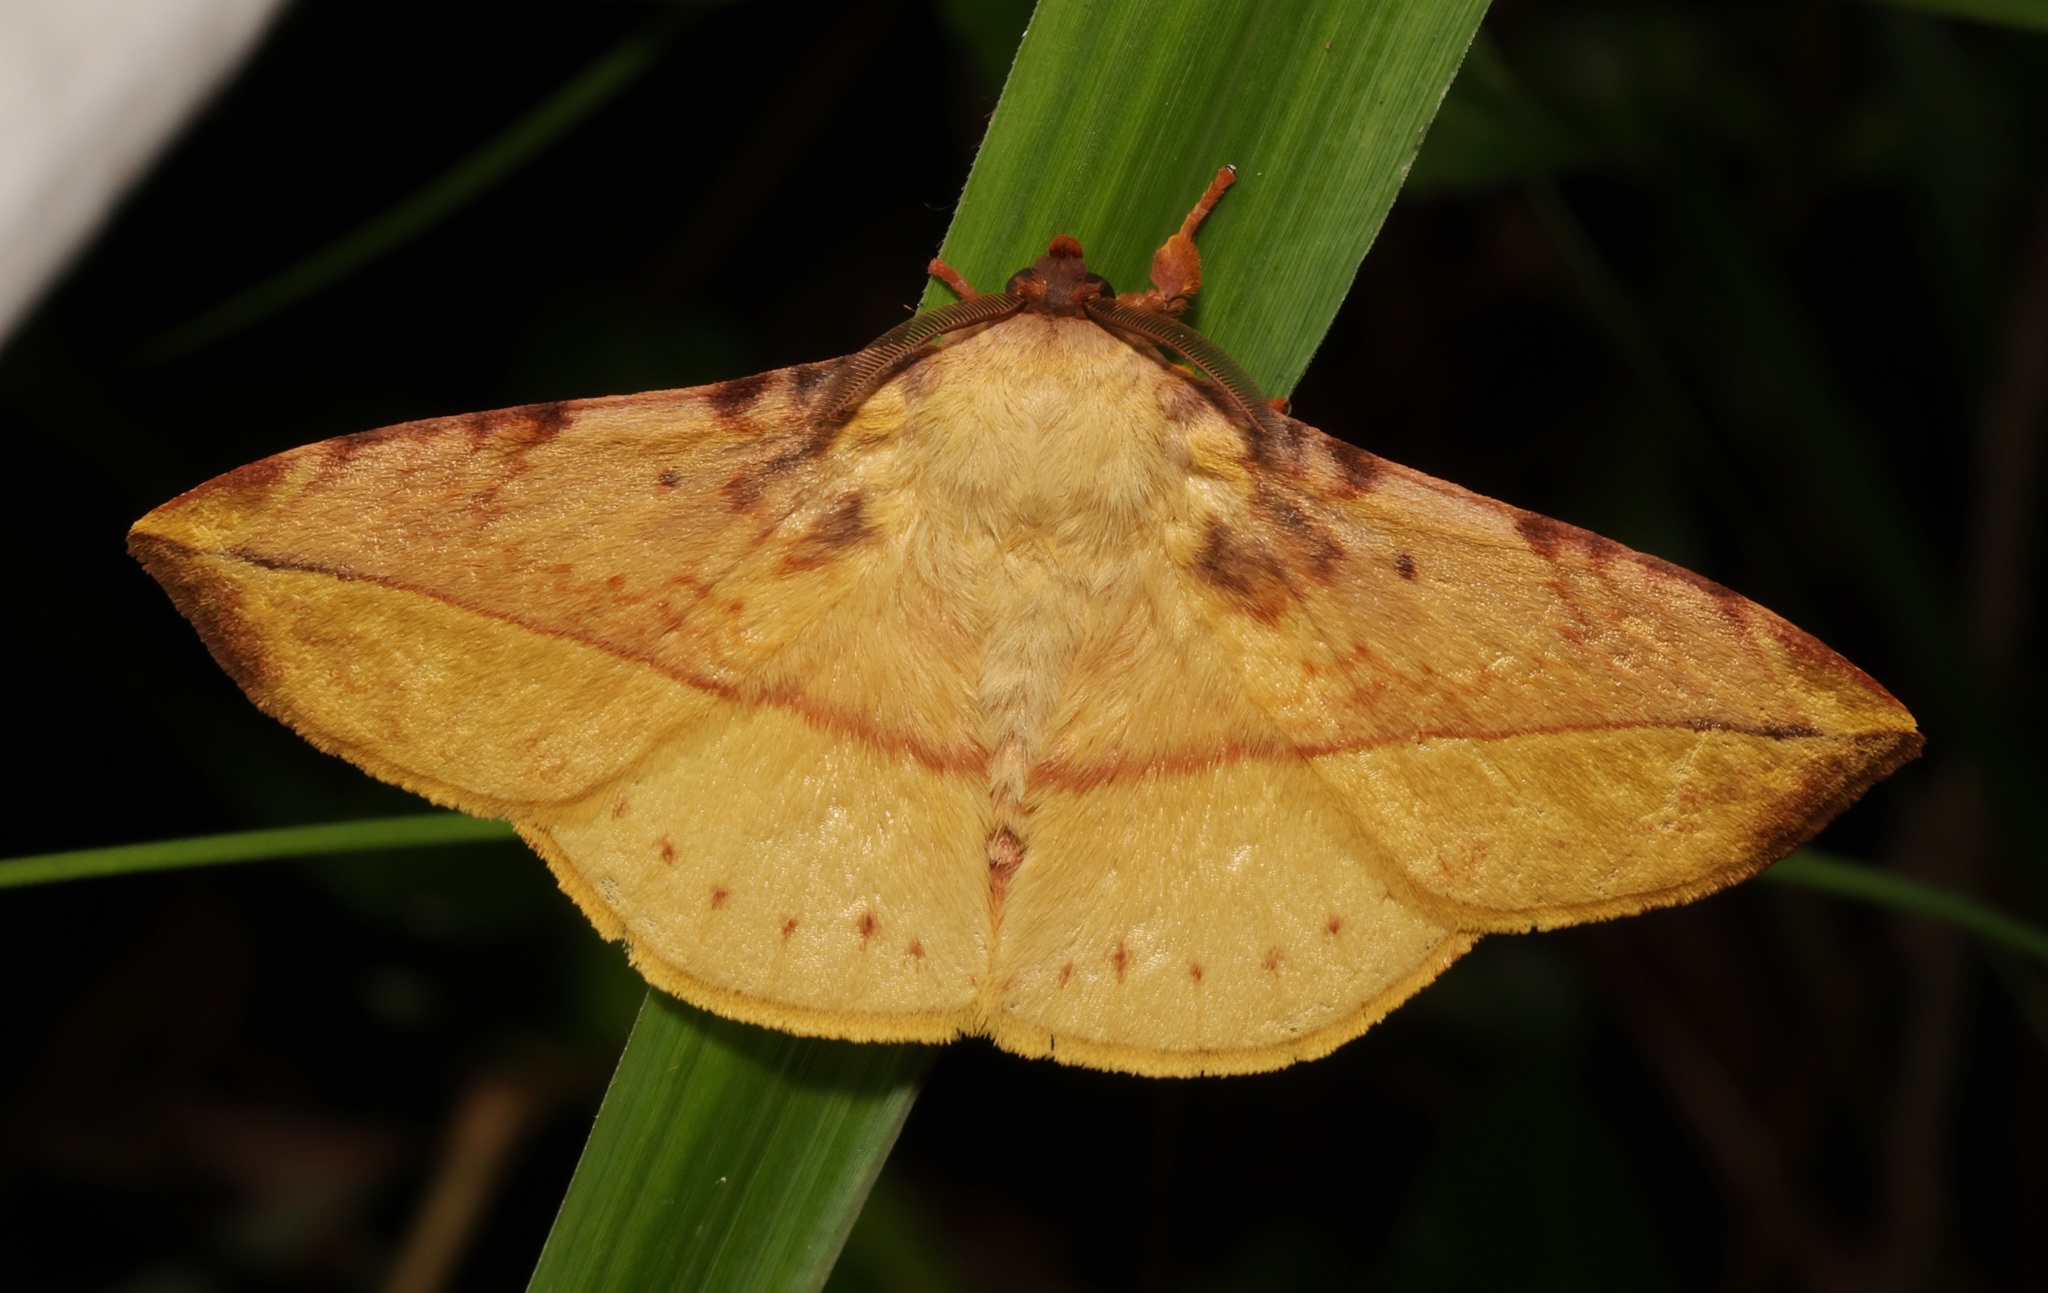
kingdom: Animalia
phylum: Arthropoda
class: Insecta
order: Lepidoptera
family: Eupterotidae
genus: Apha
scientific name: Apha kantonensis
